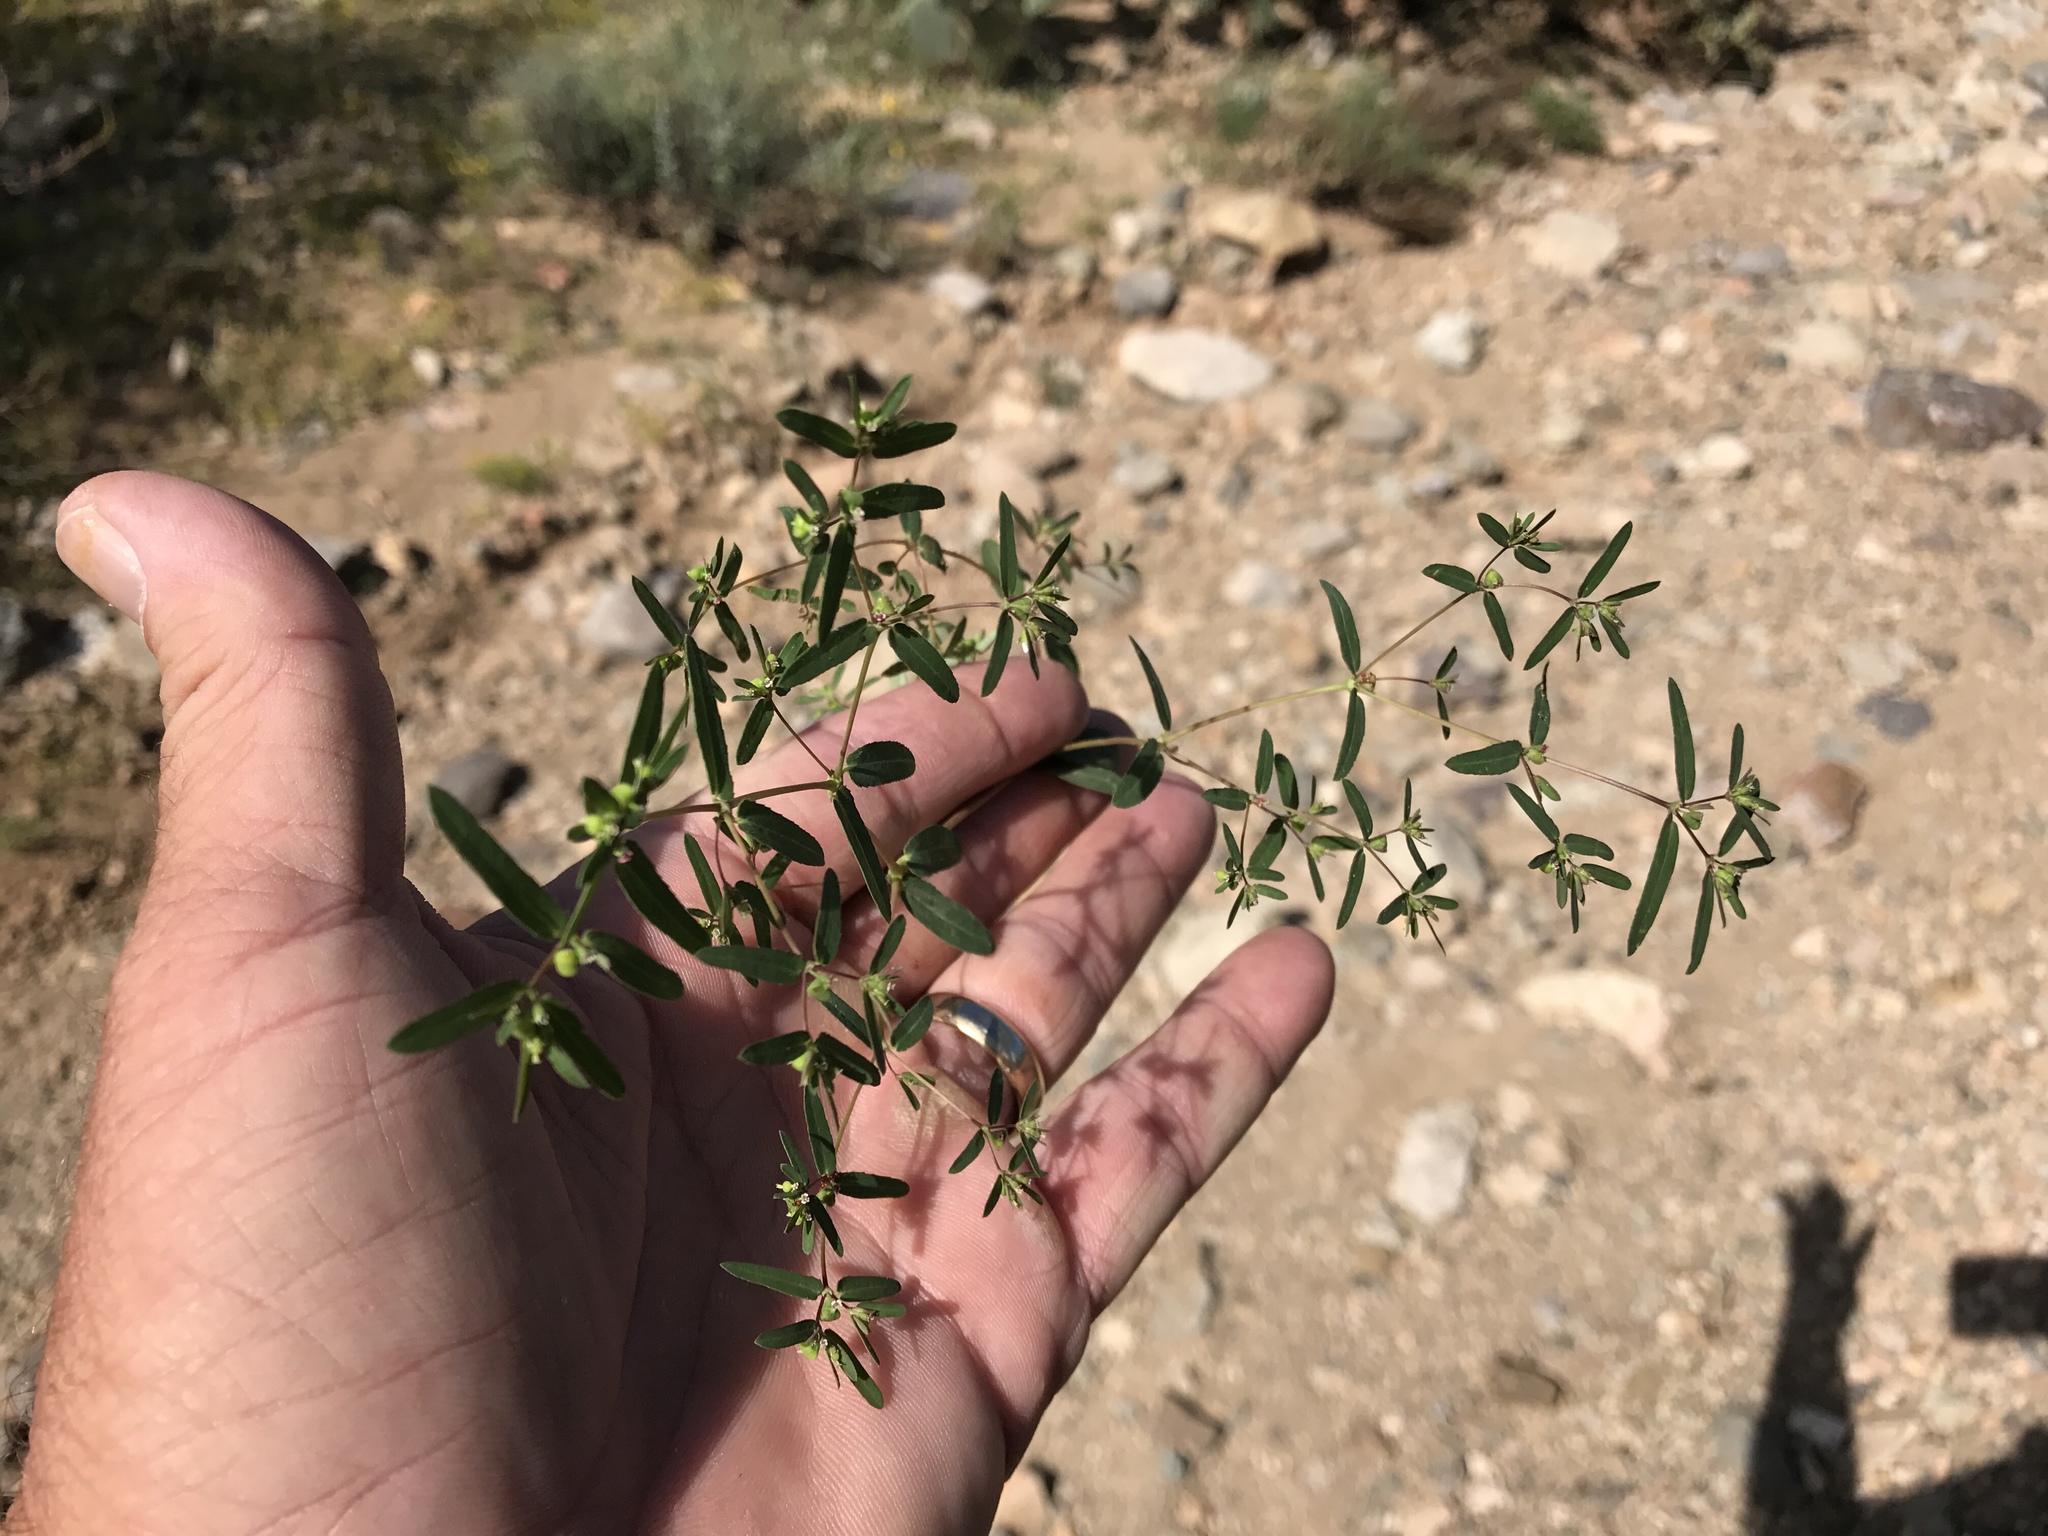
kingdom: Plantae
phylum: Tracheophyta
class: Magnoliopsida
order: Malpighiales
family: Euphorbiaceae
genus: Euphorbia
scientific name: Euphorbia hyssopifolia
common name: Hyssopleaf sandmat
